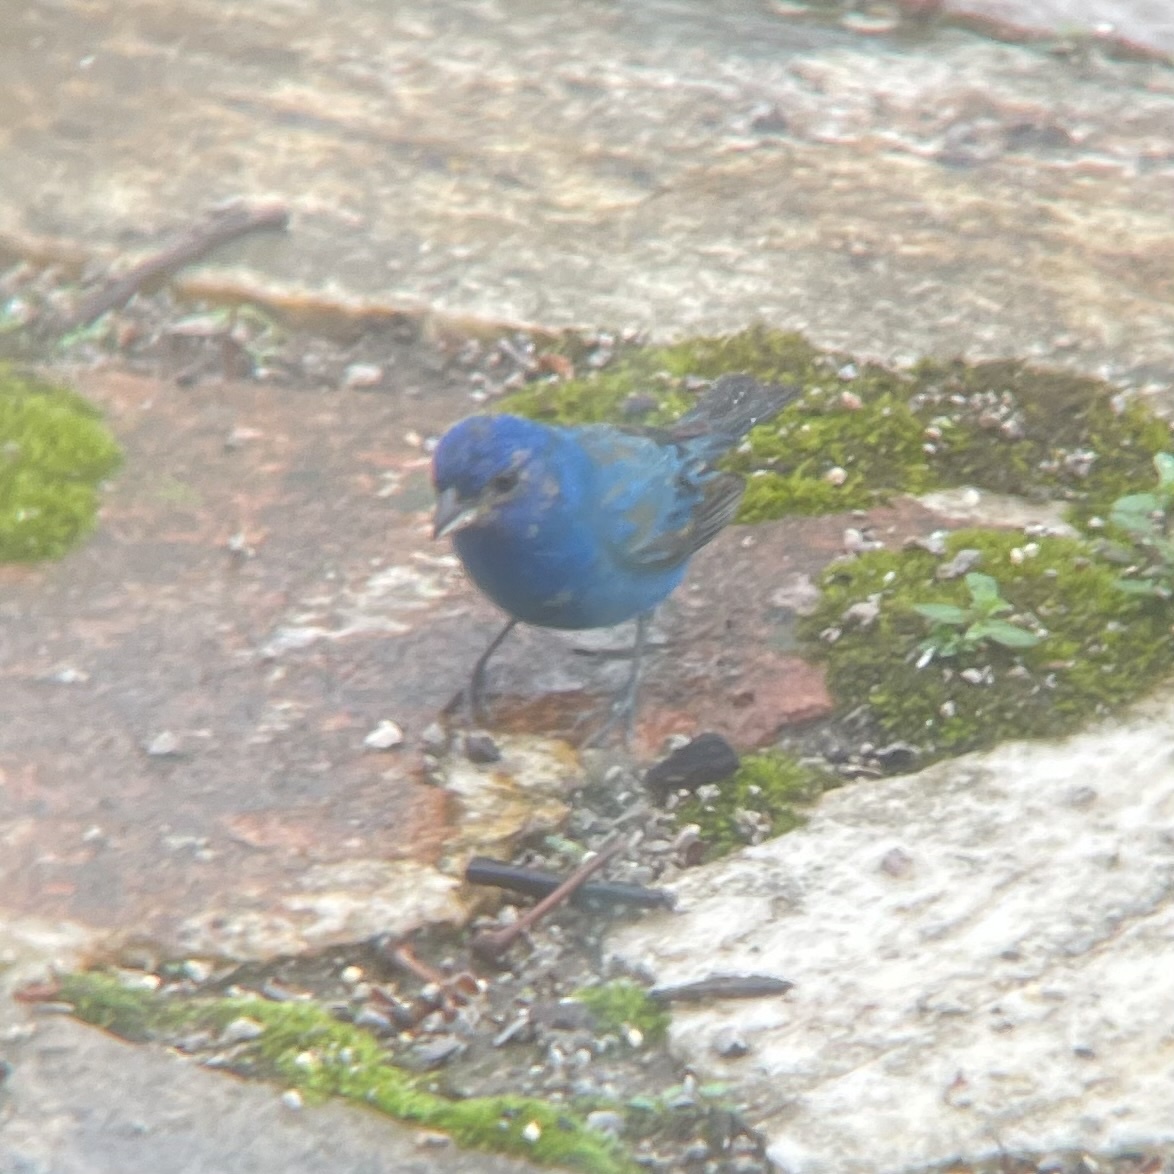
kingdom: Animalia
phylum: Chordata
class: Aves
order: Passeriformes
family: Cardinalidae
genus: Passerina
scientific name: Passerina cyanea
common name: Indigo bunting
